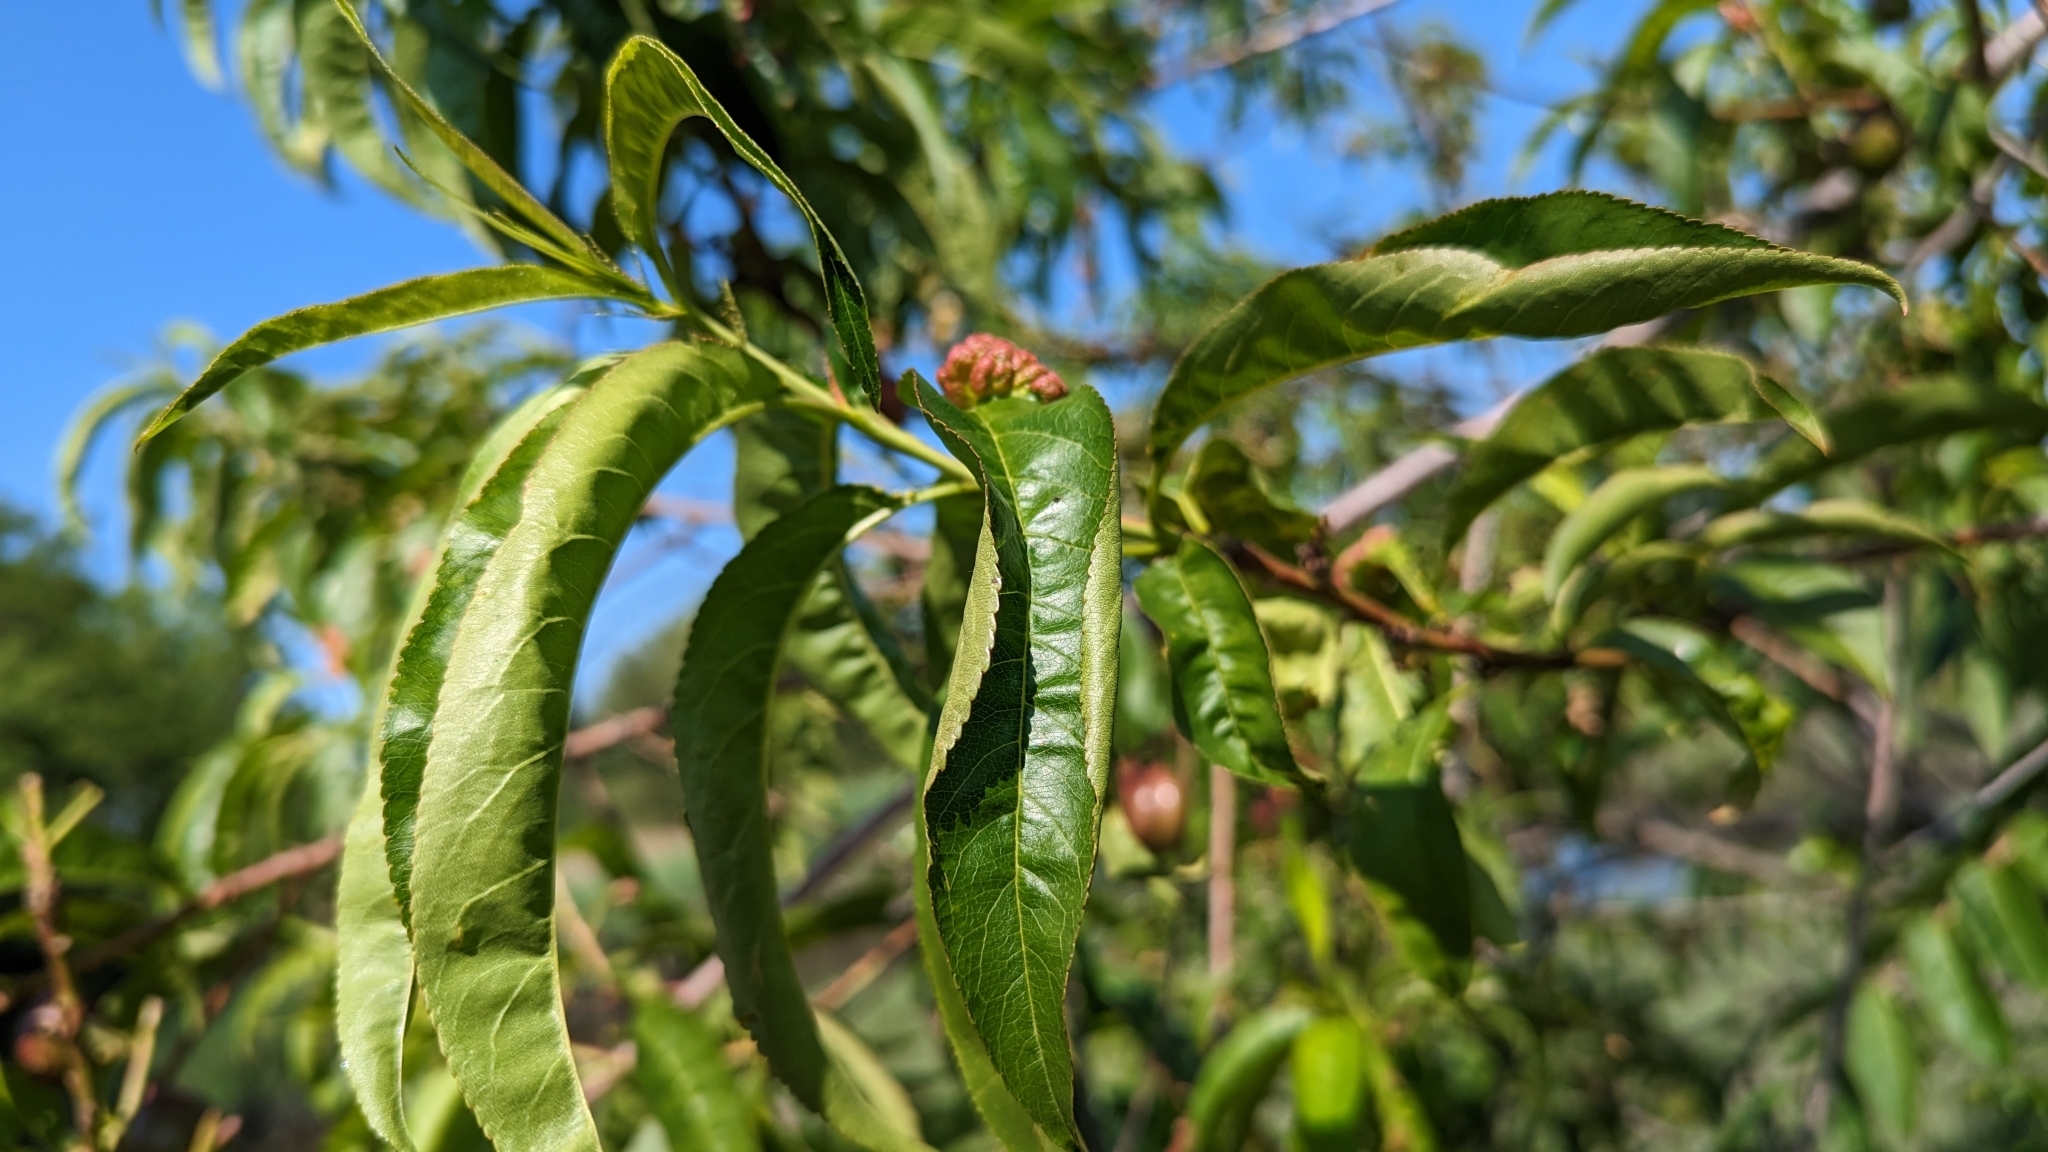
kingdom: Plantae
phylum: Tracheophyta
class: Magnoliopsida
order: Rosales
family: Rosaceae
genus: Prunus
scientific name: Prunus persica
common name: Peach
